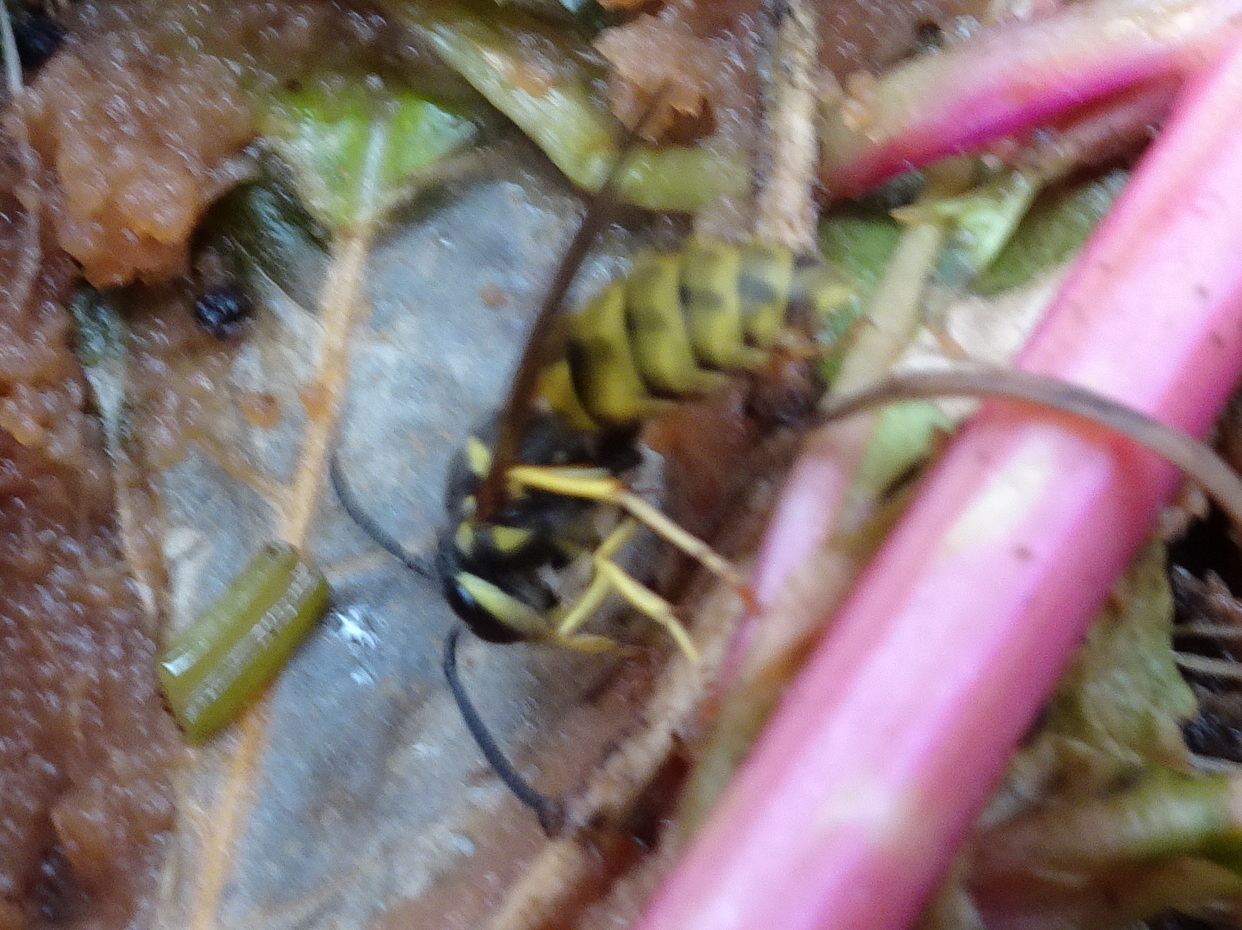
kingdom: Animalia
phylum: Arthropoda
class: Insecta
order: Hymenoptera
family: Vespidae
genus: Vespula
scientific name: Vespula maculifrons
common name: Eastern yellowjacket
